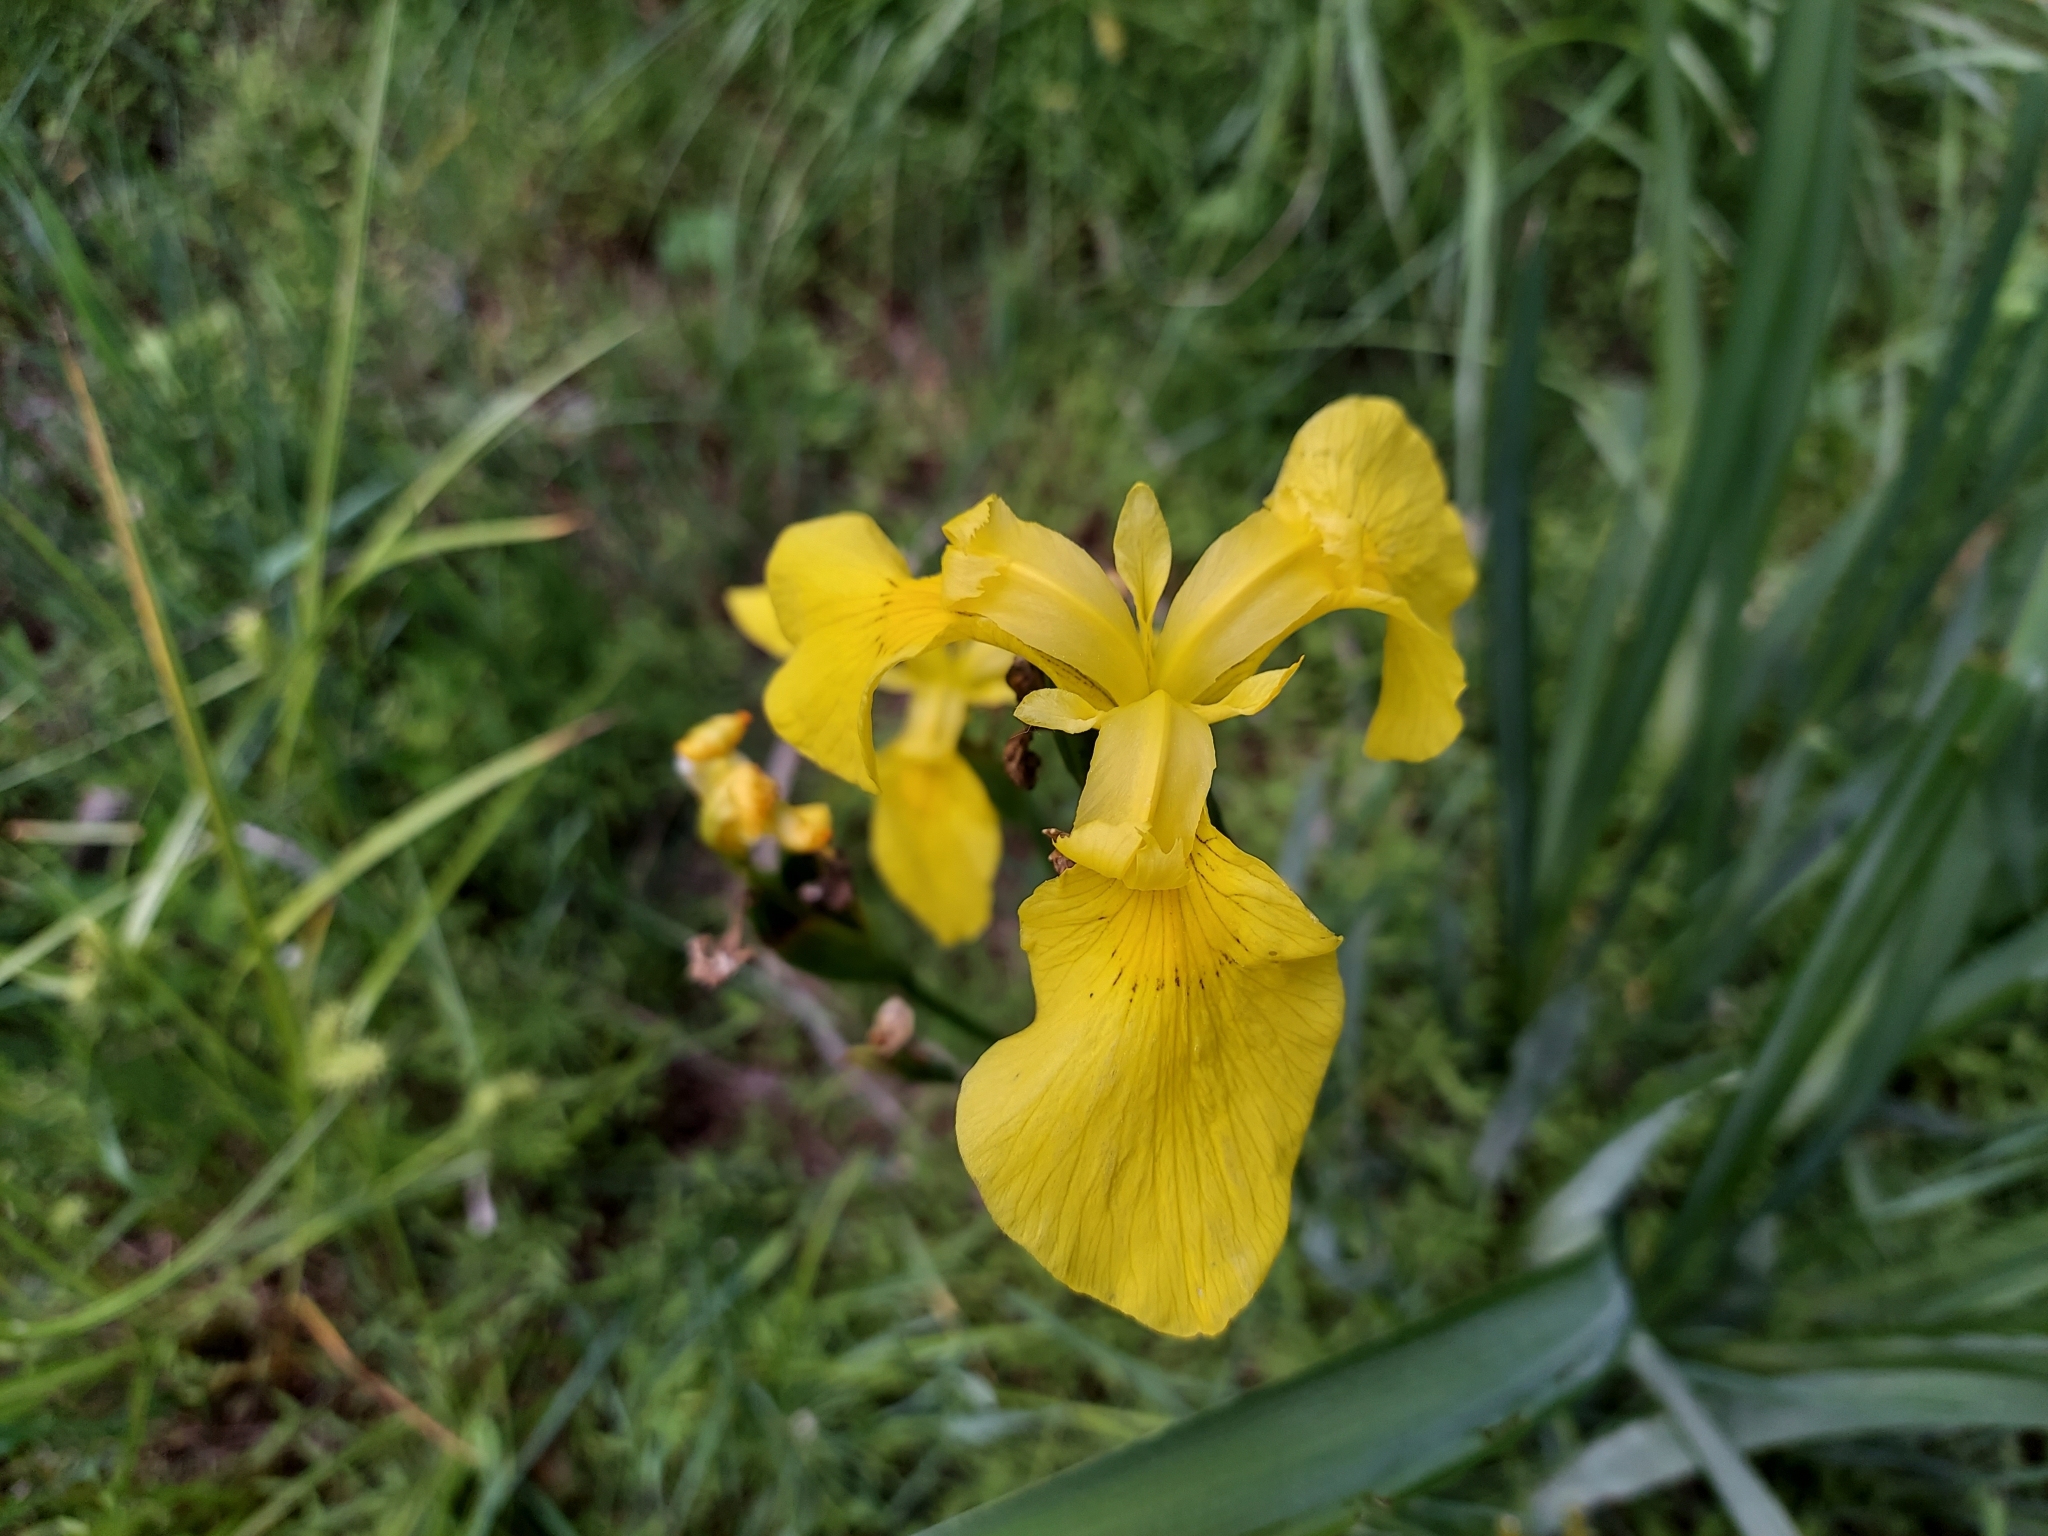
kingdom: Plantae
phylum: Tracheophyta
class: Liliopsida
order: Asparagales
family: Iridaceae
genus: Iris
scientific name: Iris pseudacorus
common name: Yellow flag
